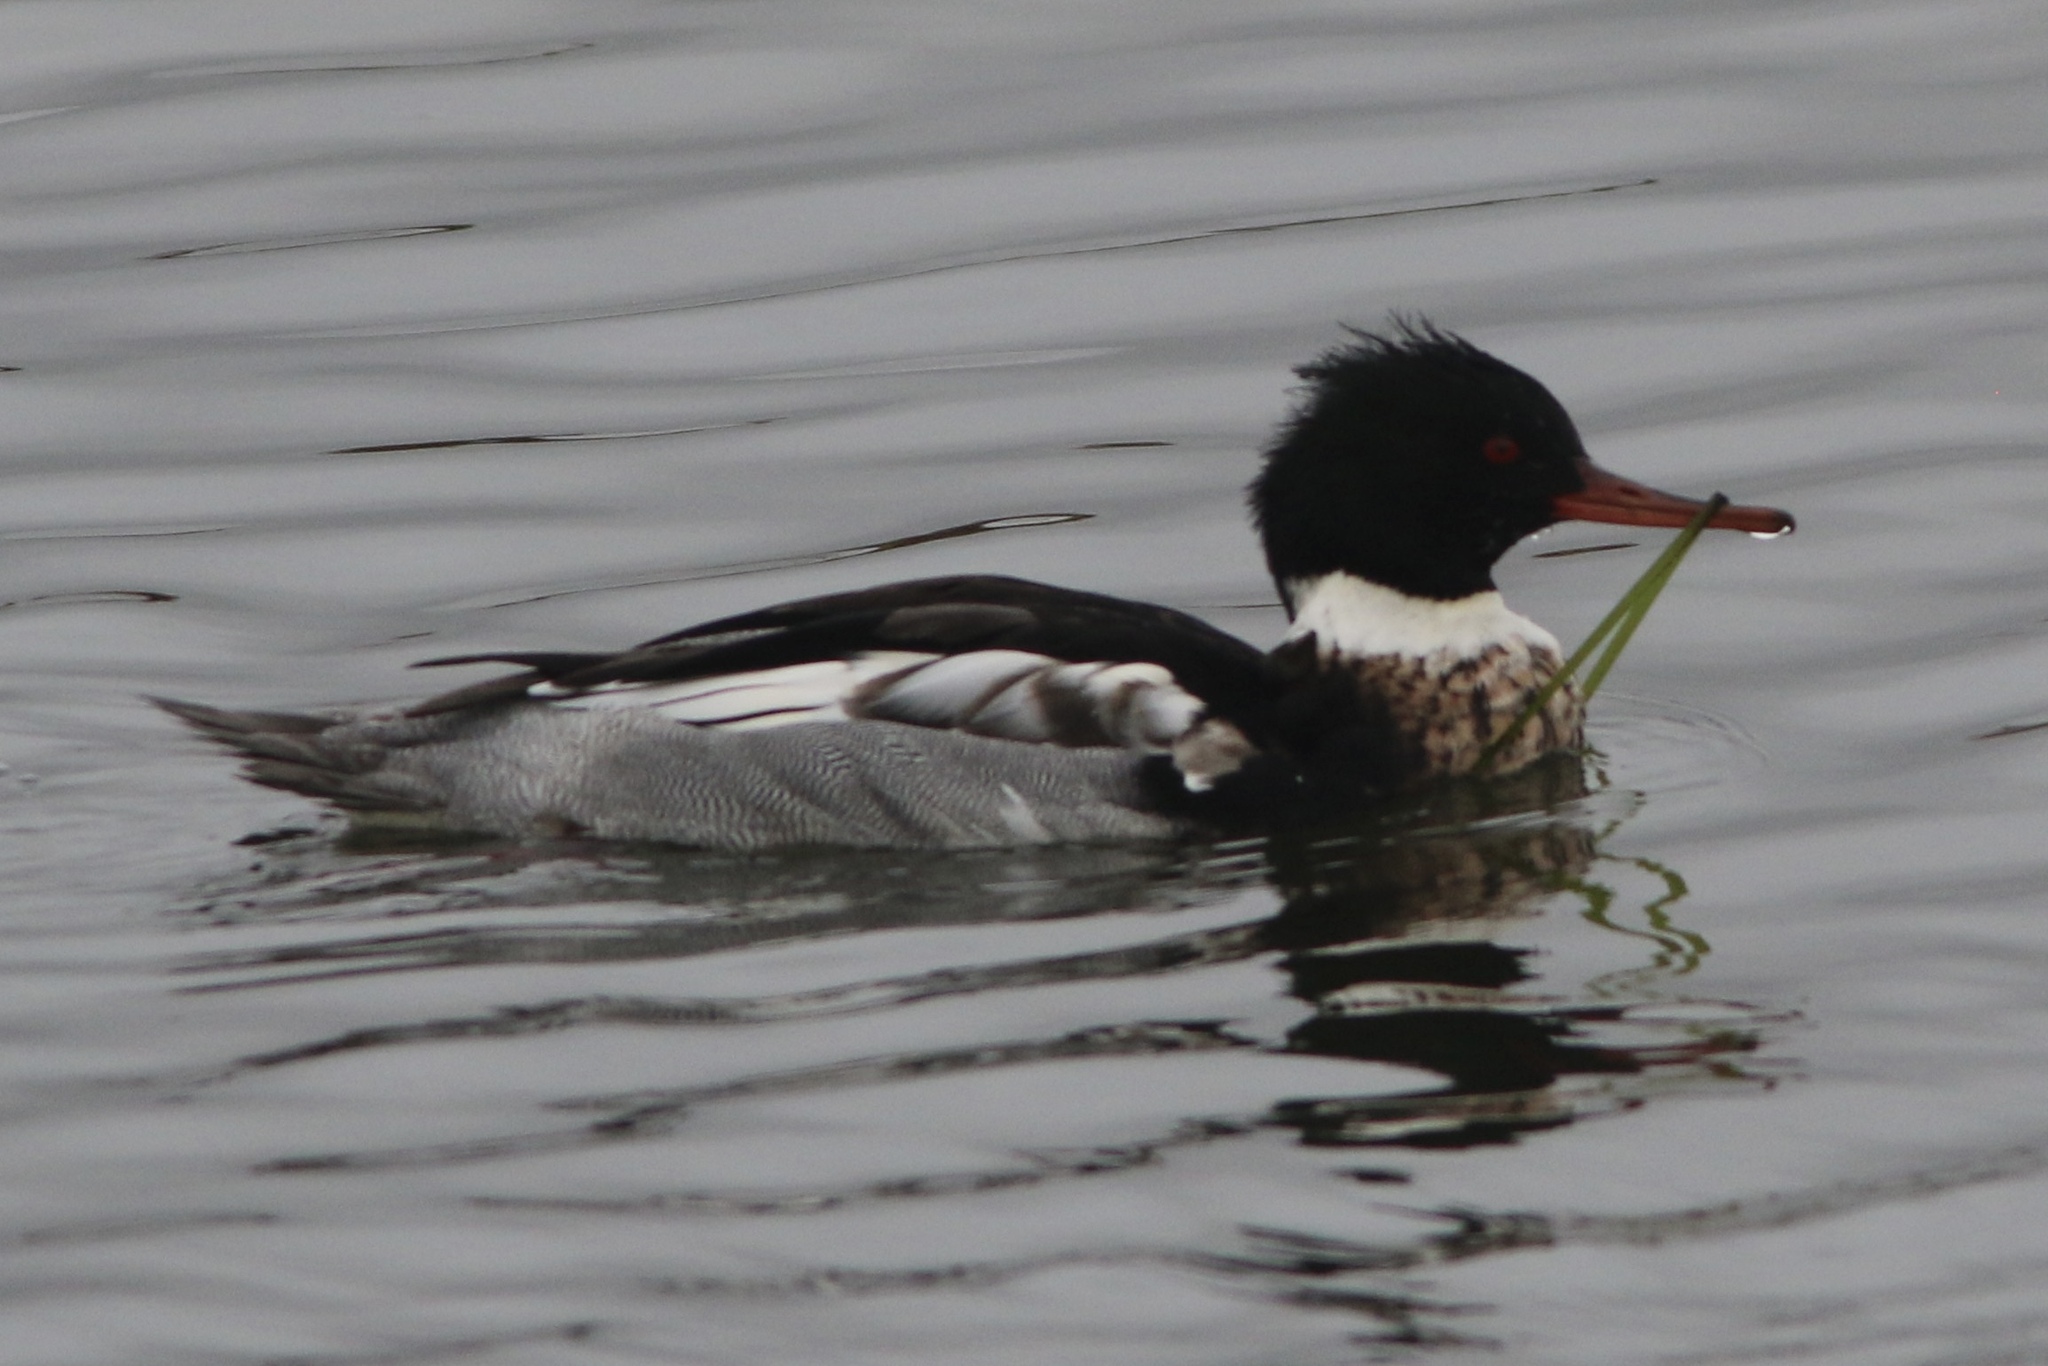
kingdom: Animalia
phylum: Chordata
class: Aves
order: Anseriformes
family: Anatidae
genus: Mergus
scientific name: Mergus serrator
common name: Red-breasted merganser
